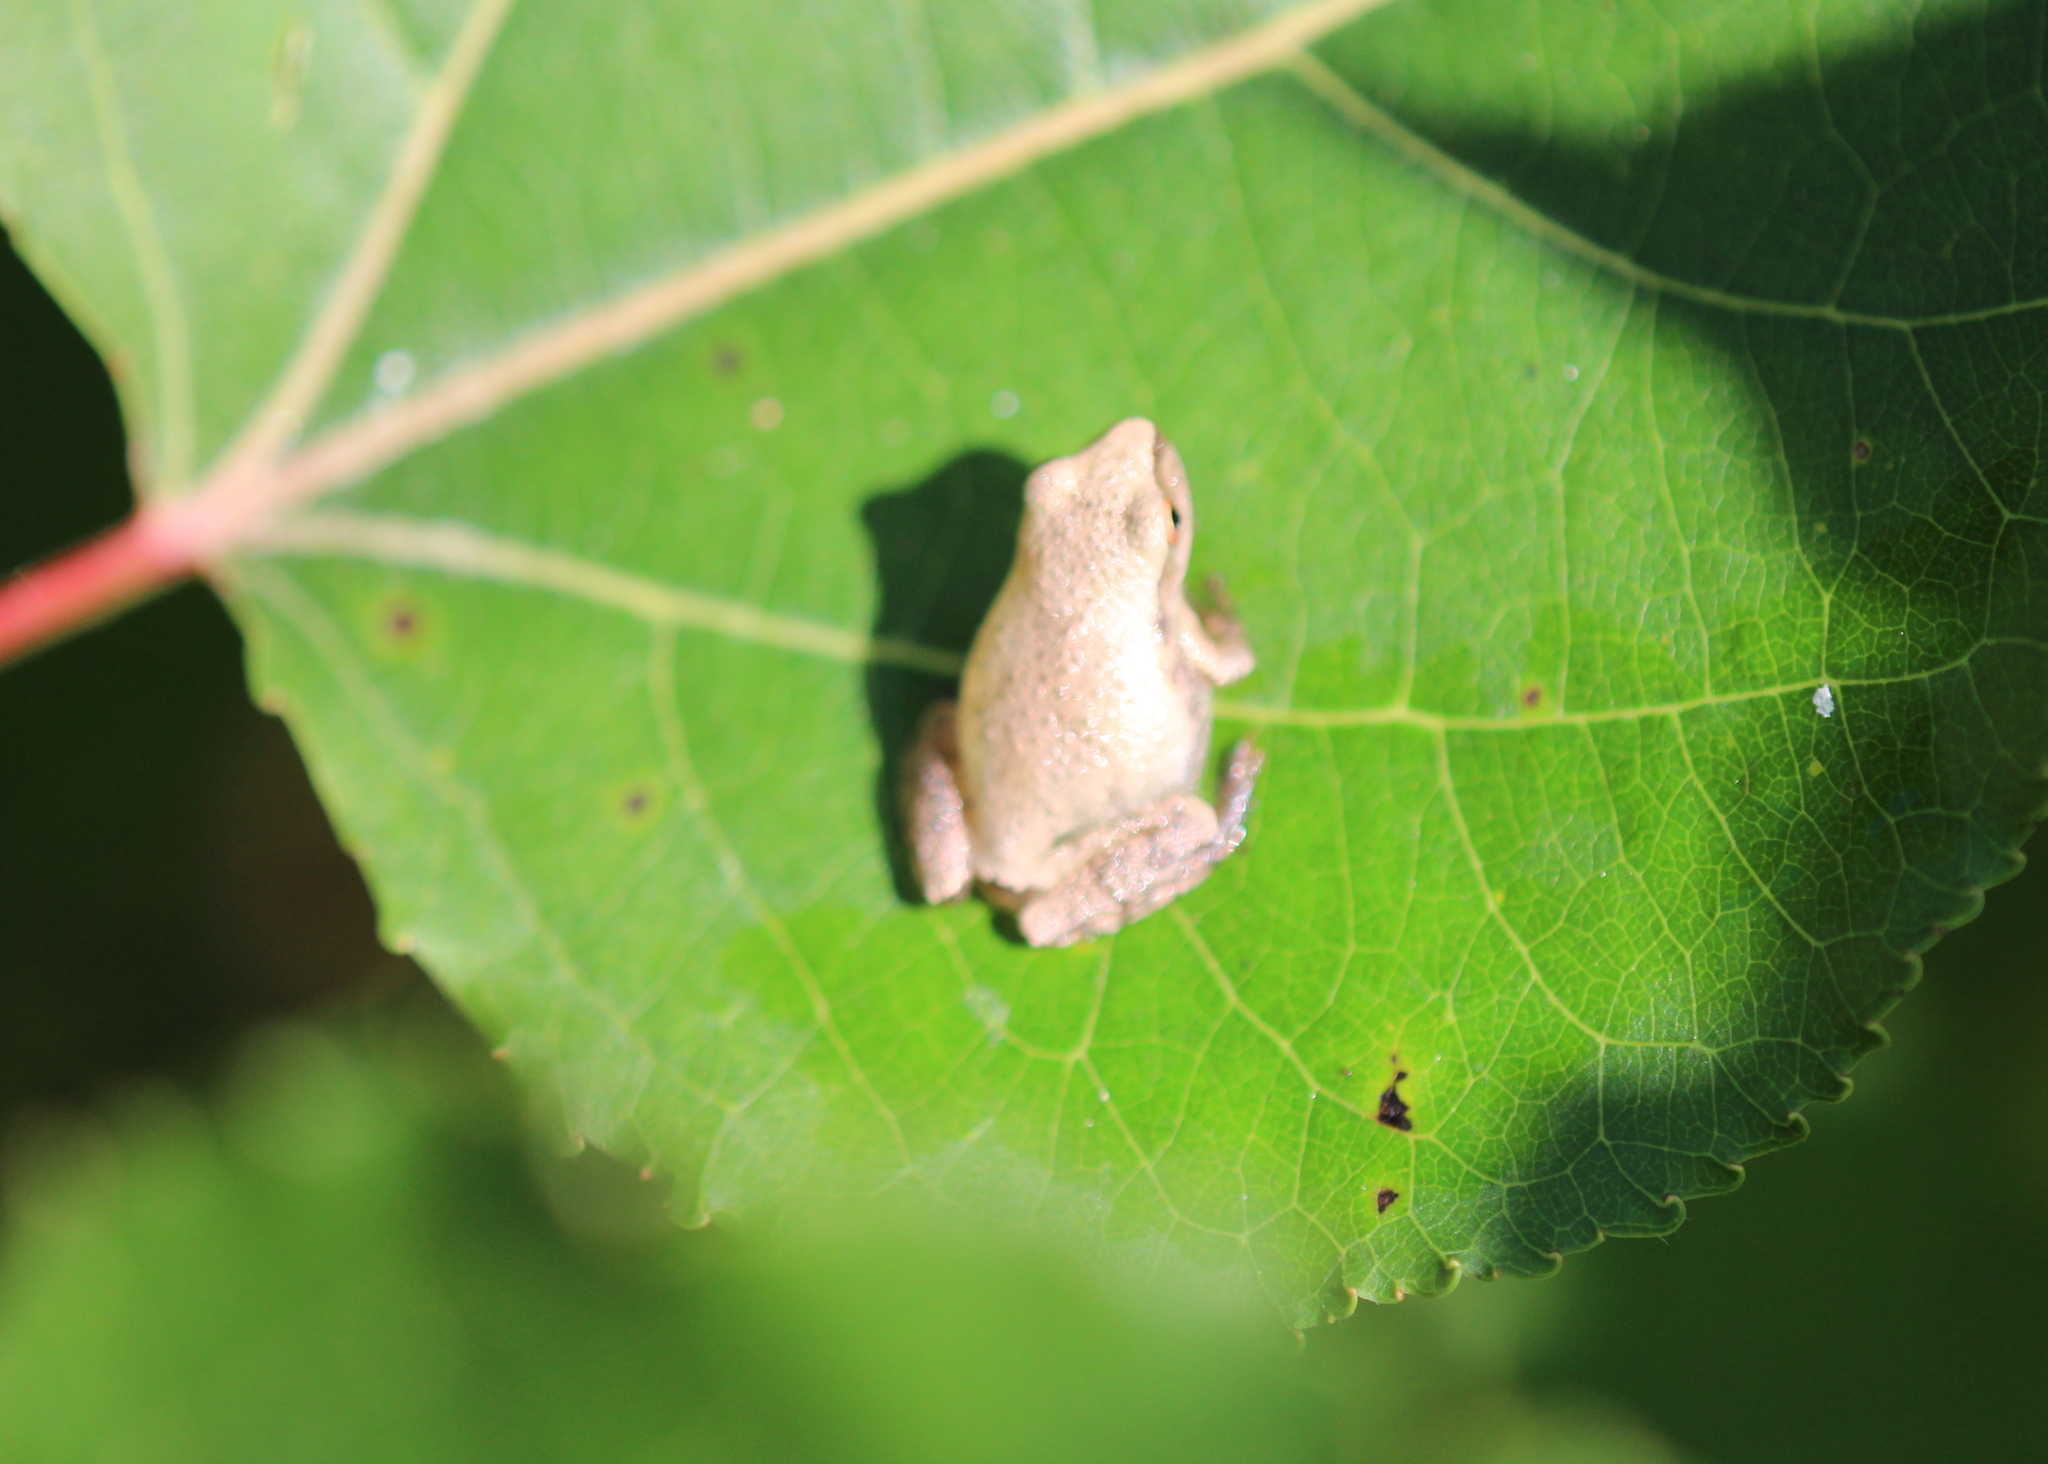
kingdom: Animalia
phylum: Chordata
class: Amphibia
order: Anura
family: Hylidae
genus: Pseudacris
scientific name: Pseudacris crucifer
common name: Spring peeper
